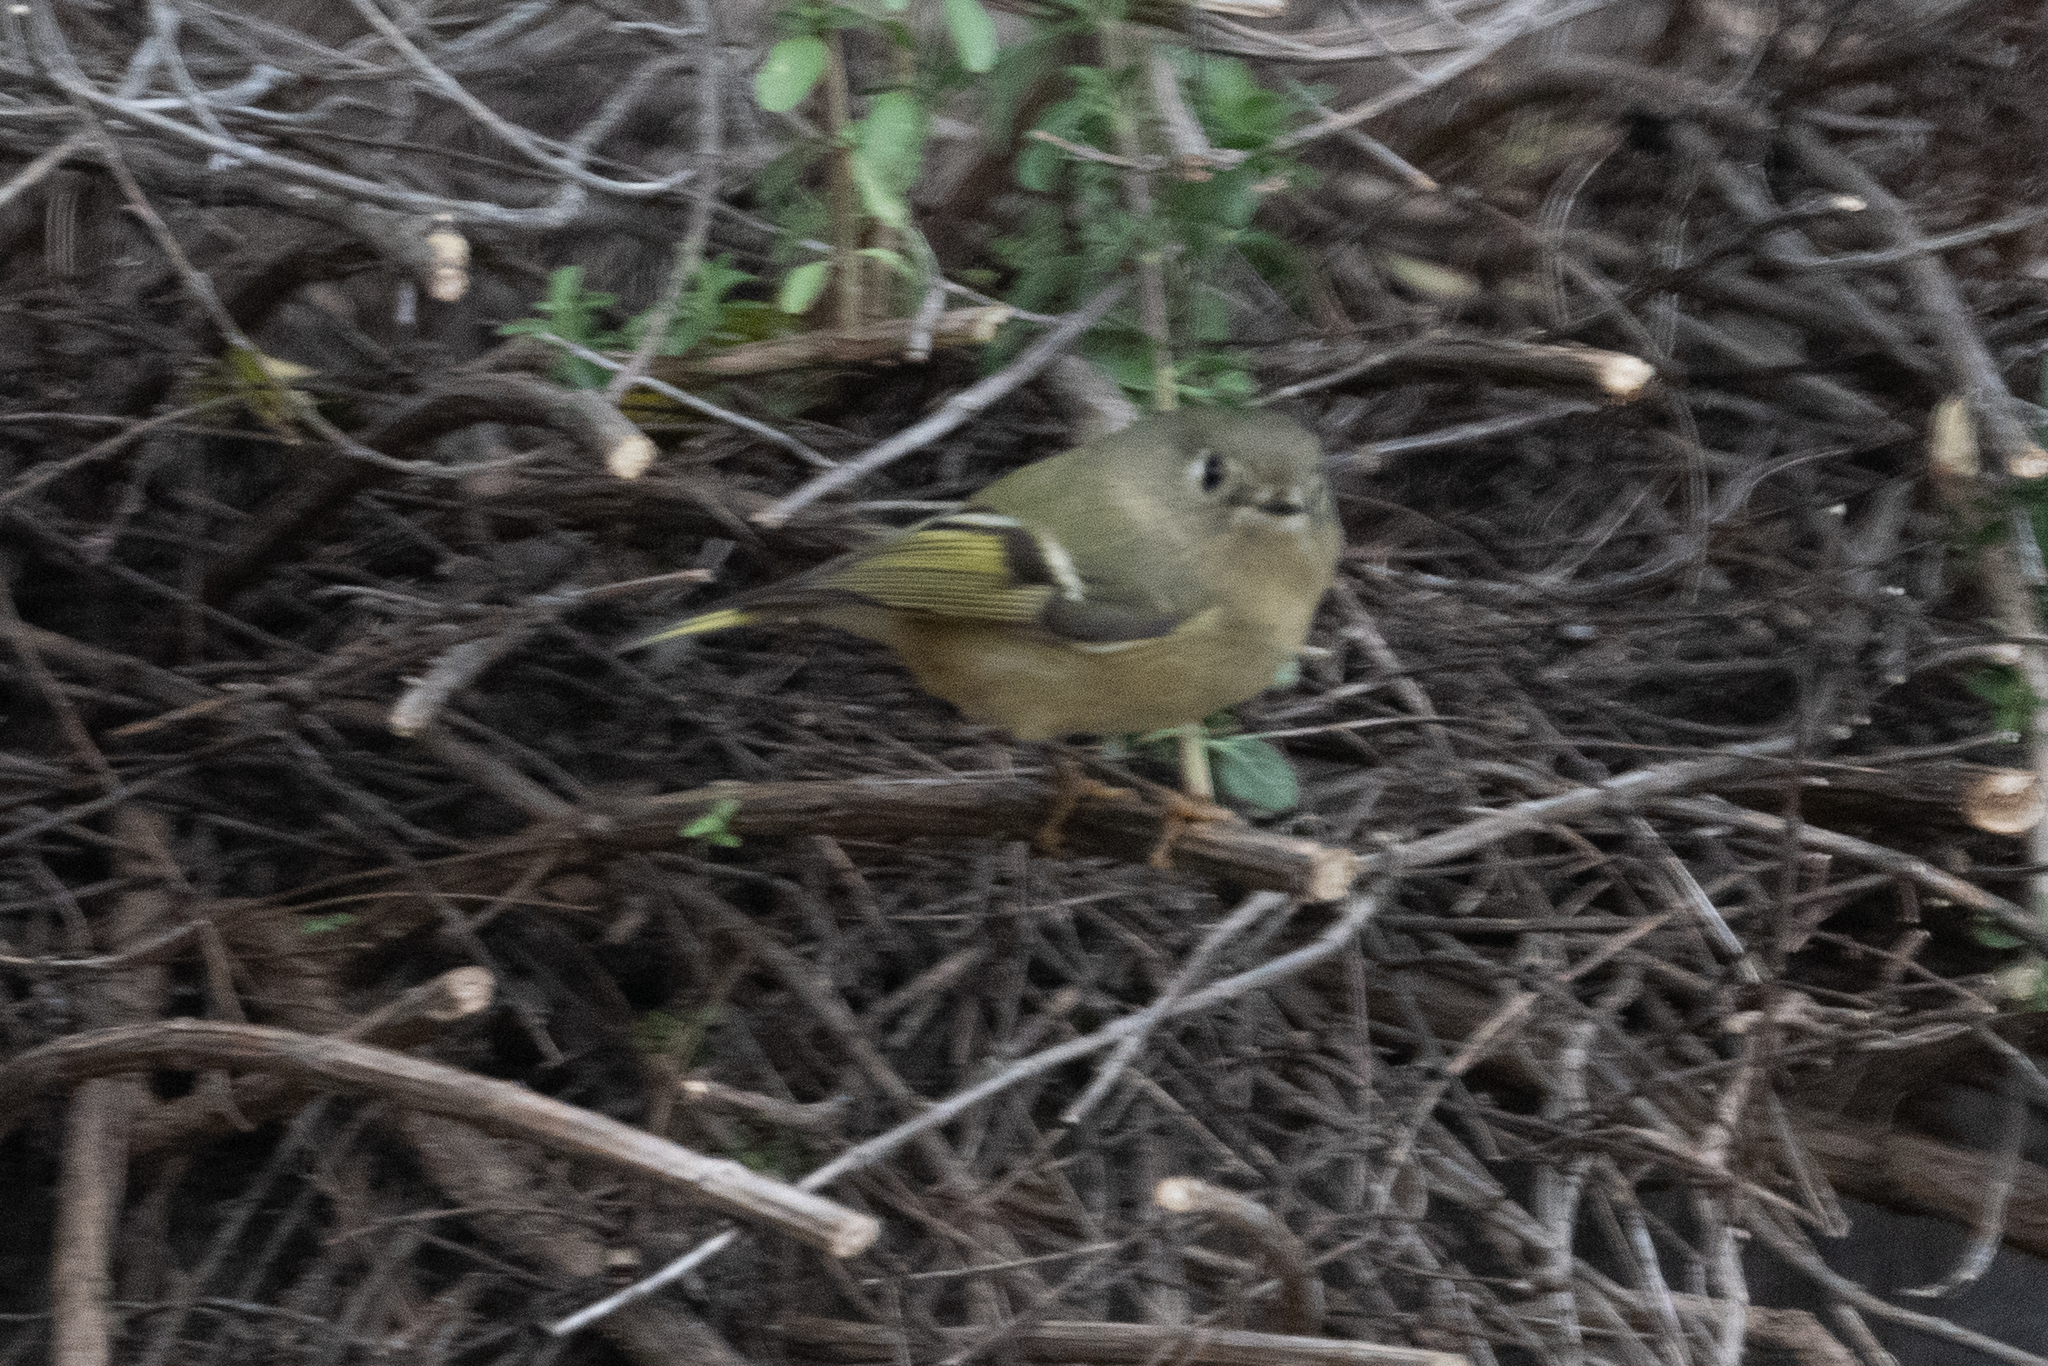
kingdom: Animalia
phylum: Chordata
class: Aves
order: Passeriformes
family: Regulidae
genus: Regulus
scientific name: Regulus calendula
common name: Ruby-crowned kinglet
